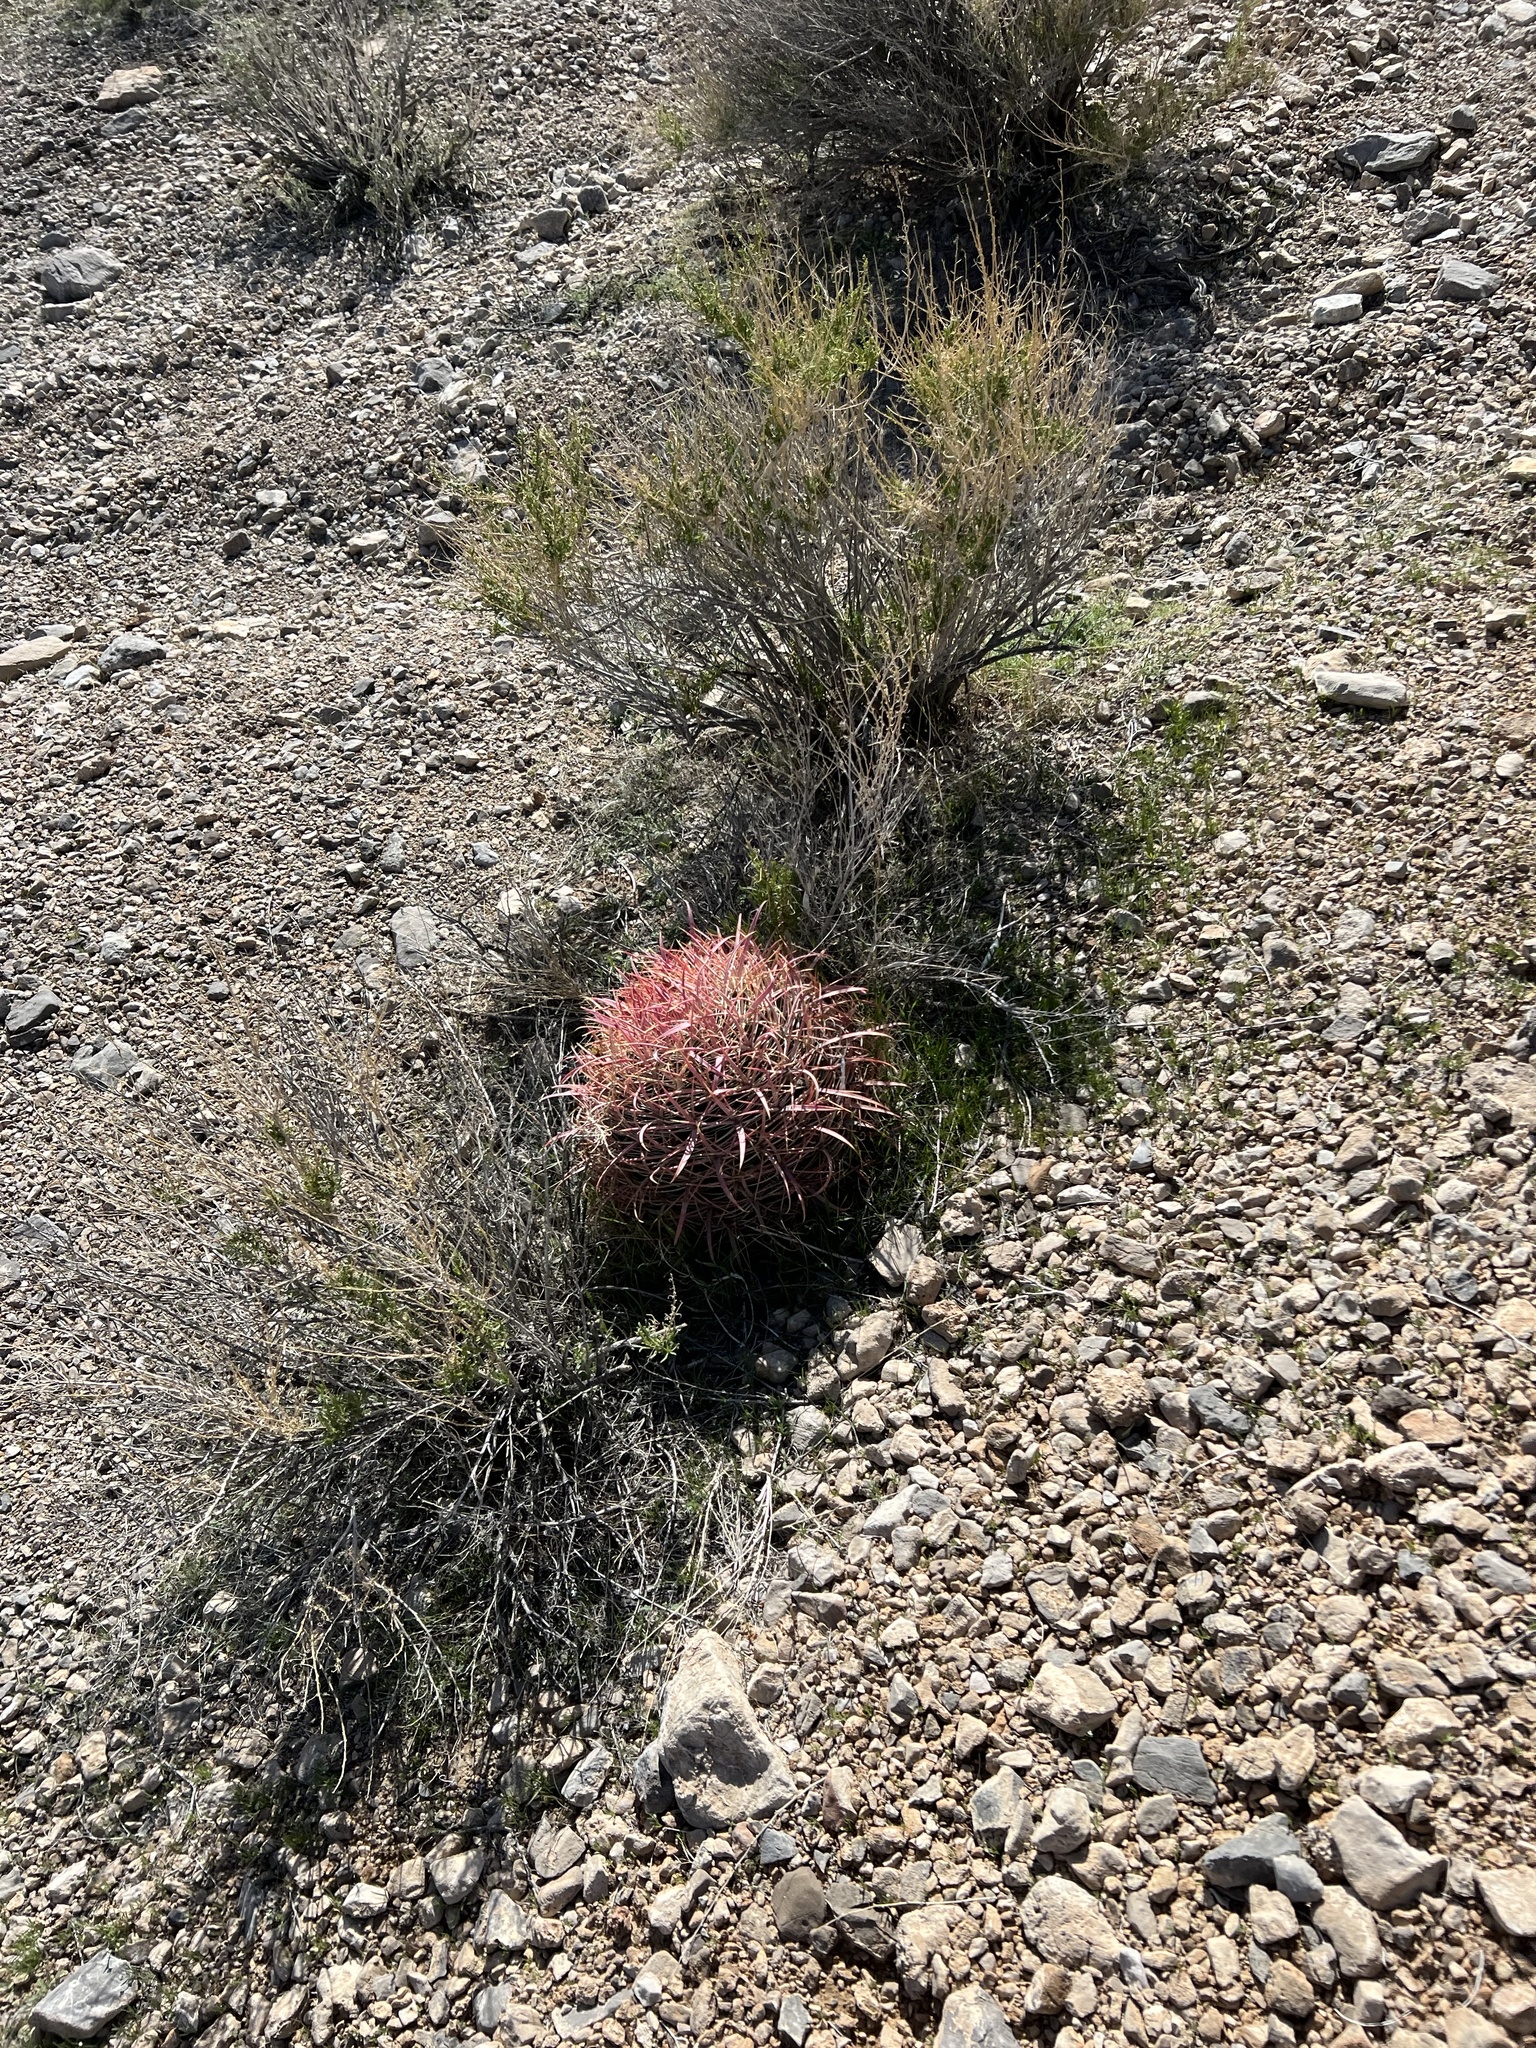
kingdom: Plantae
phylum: Tracheophyta
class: Magnoliopsida
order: Caryophyllales
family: Cactaceae
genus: Ferocactus
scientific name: Ferocactus cylindraceus
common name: California barrel cactus
